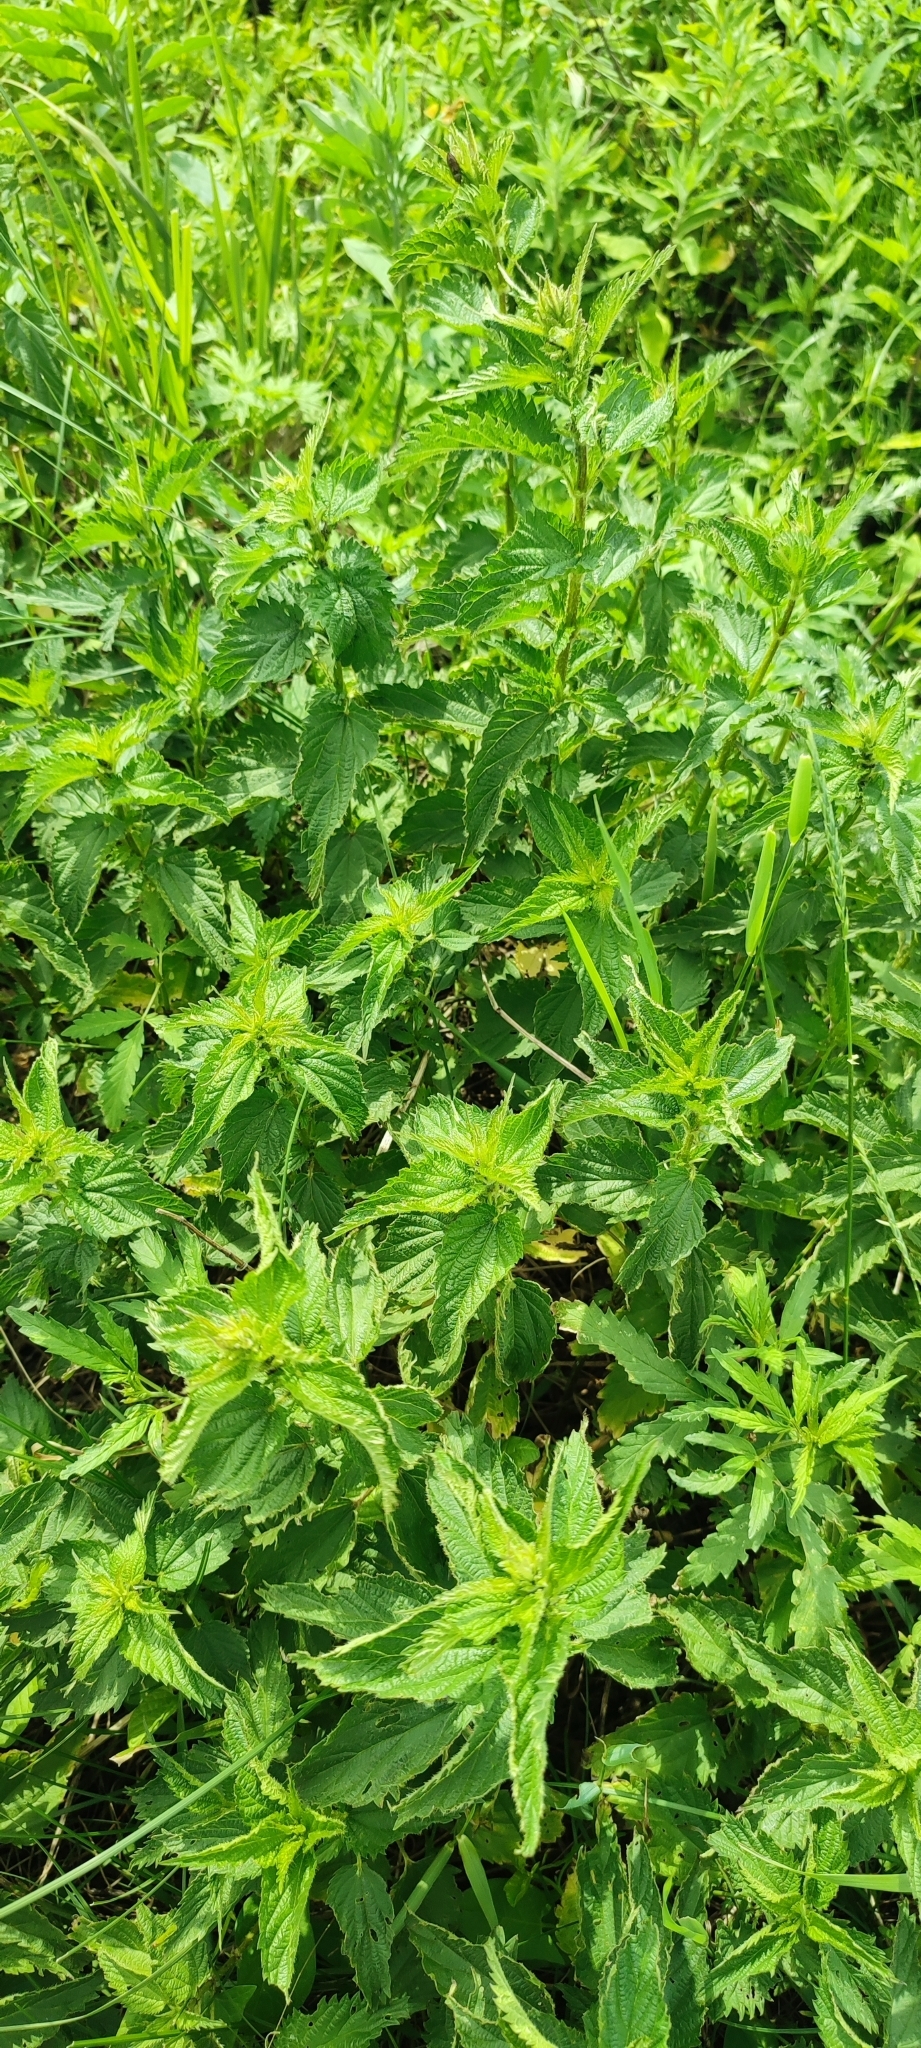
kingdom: Plantae
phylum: Tracheophyta
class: Magnoliopsida
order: Rosales
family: Urticaceae
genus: Urtica
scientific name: Urtica dioica
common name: Common nettle
